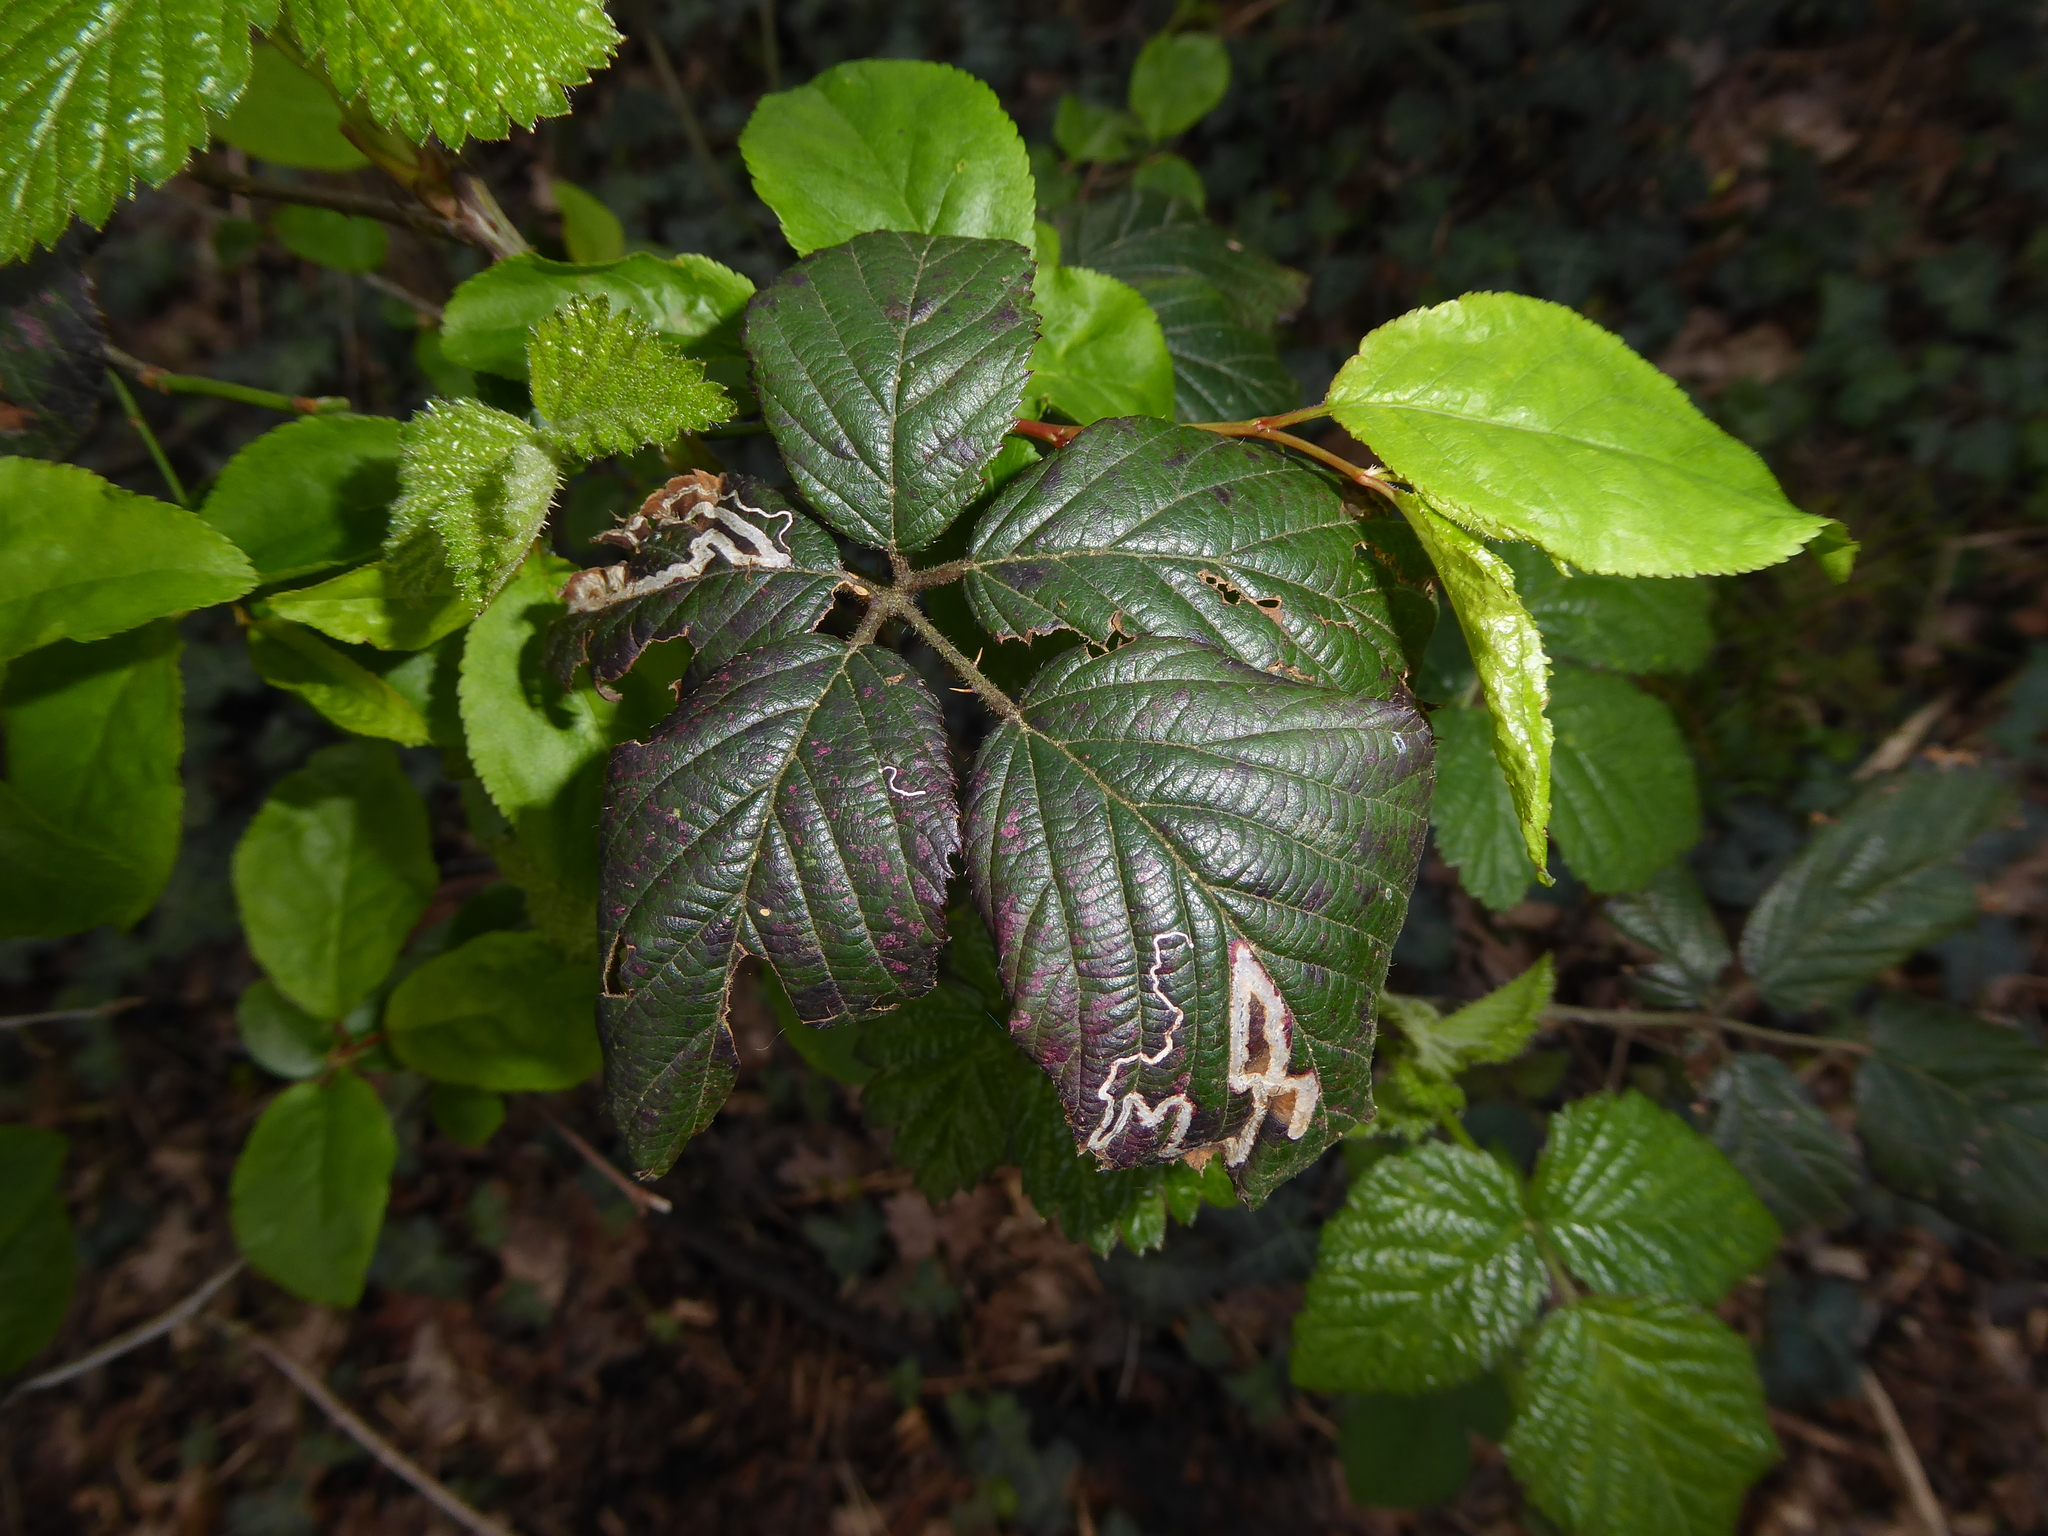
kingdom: Animalia
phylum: Arthropoda
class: Insecta
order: Lepidoptera
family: Nepticulidae
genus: Stigmella
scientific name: Stigmella aurella
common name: Golden pigmy
